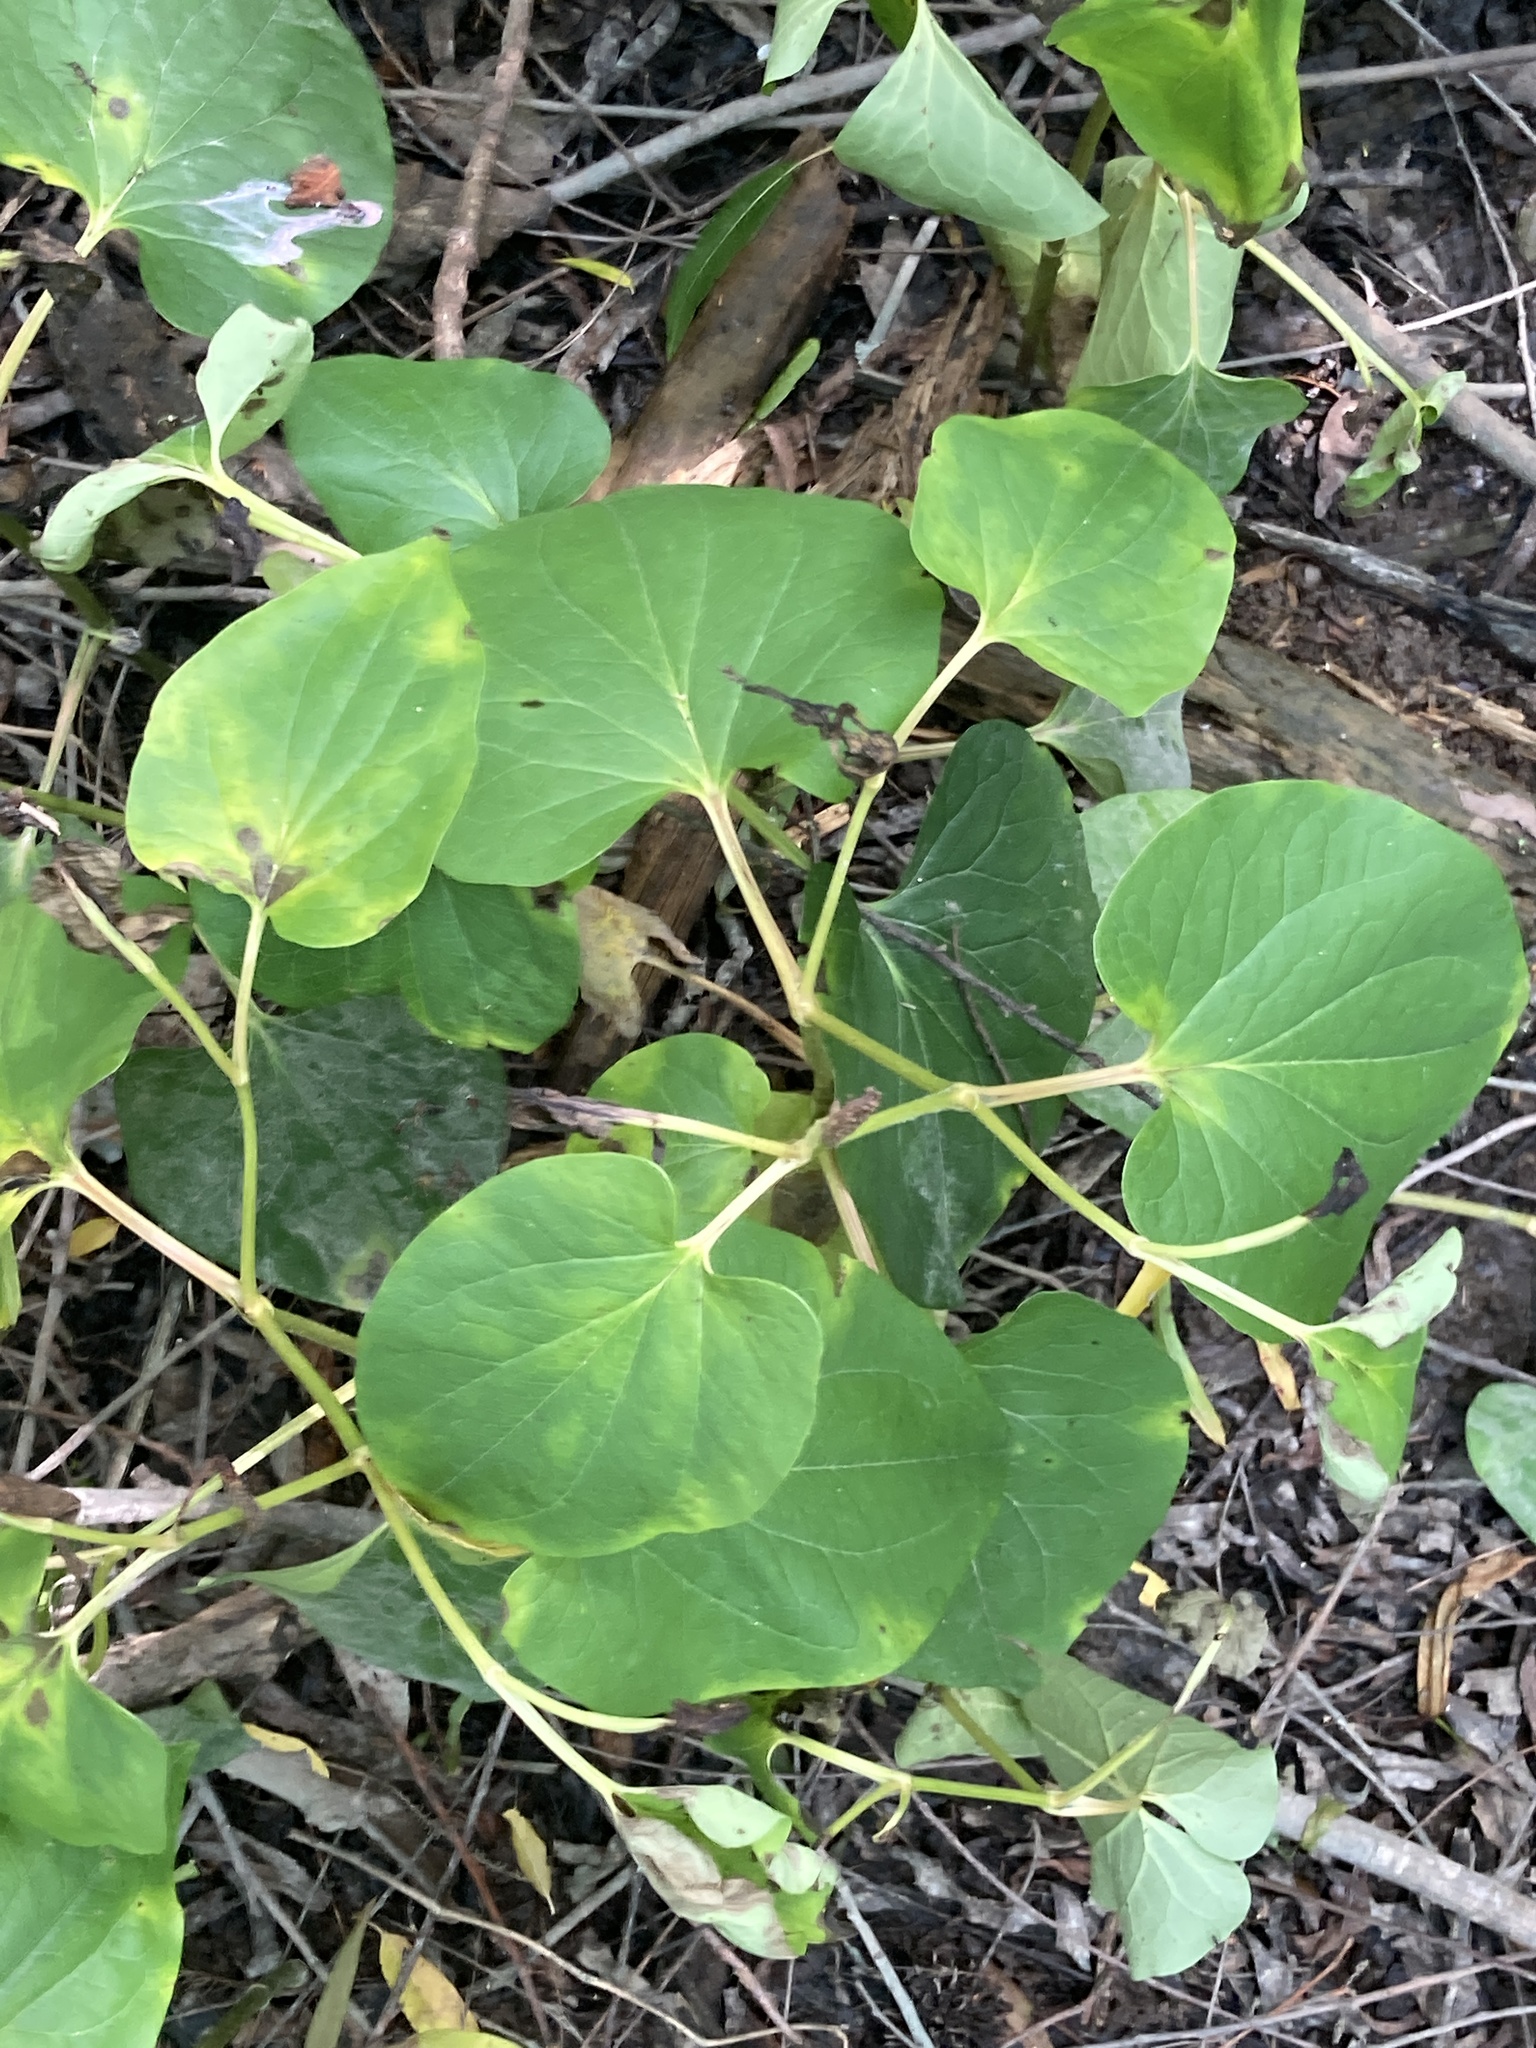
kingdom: Plantae
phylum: Tracheophyta
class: Magnoliopsida
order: Piperales
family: Saururaceae
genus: Saururus
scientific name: Saururus cernuus
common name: Lizard's-tail
